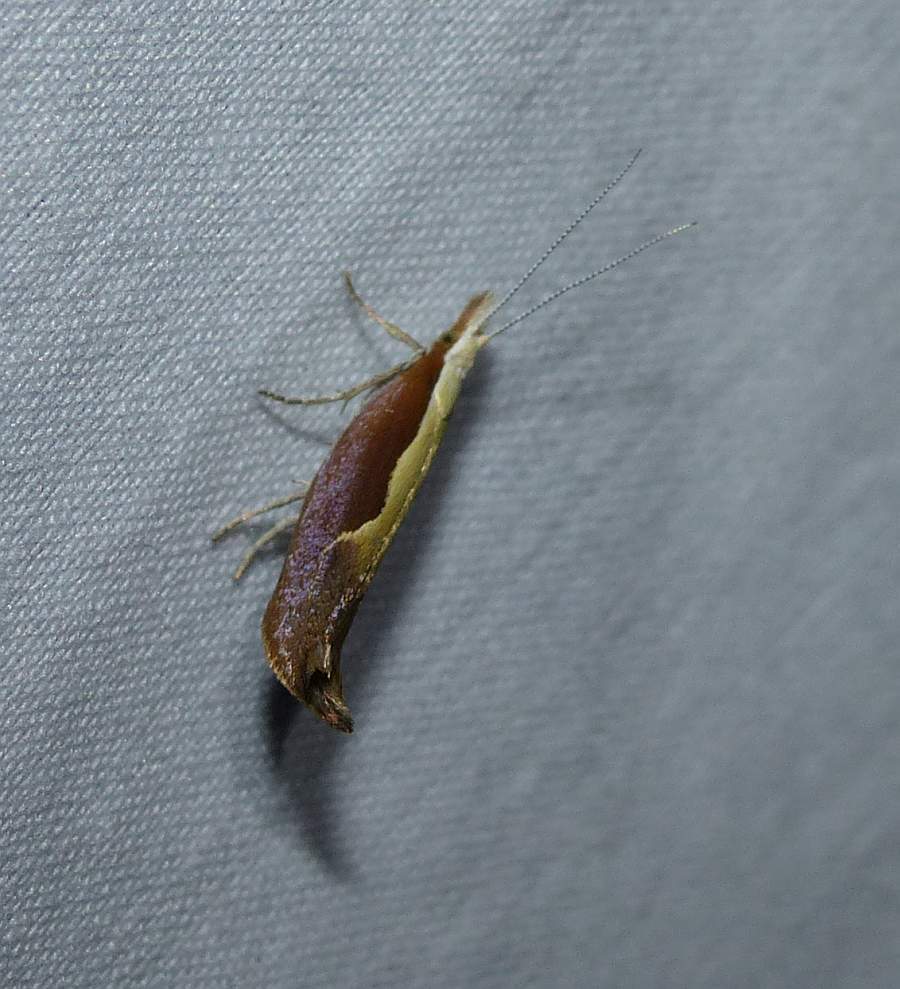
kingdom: Animalia
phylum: Arthropoda
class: Insecta
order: Lepidoptera
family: Ypsolophidae
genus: Ypsolopha
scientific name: Ypsolopha dentella
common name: Honeysuckle moth
